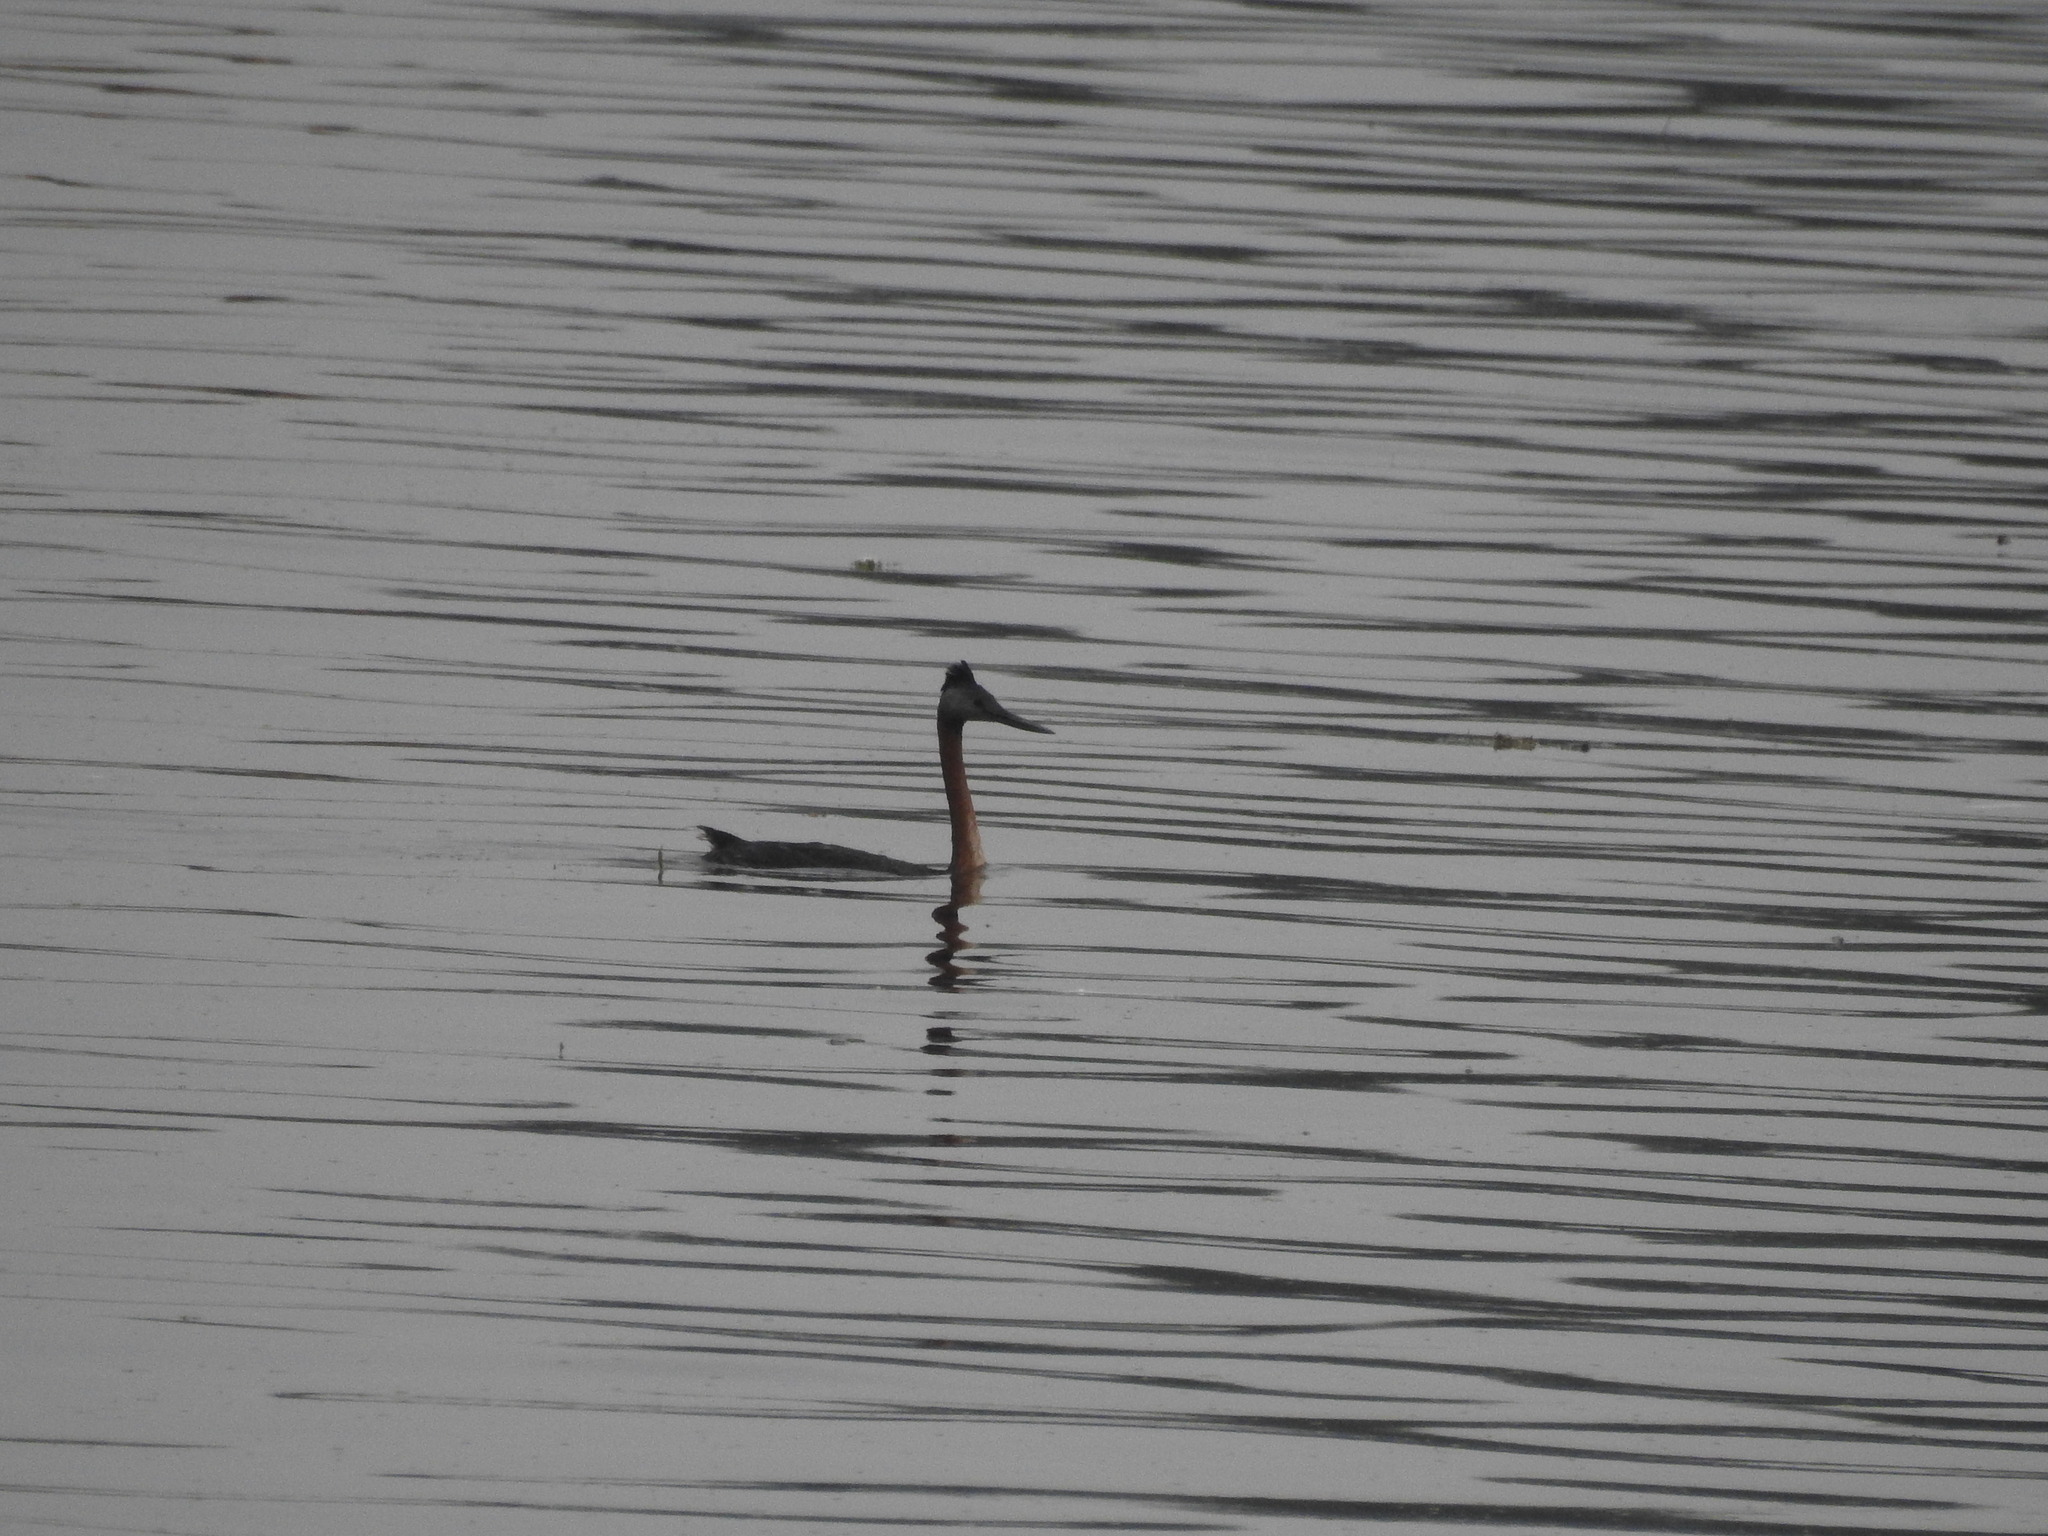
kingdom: Animalia
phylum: Chordata
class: Aves
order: Podicipediformes
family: Podicipedidae
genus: Podiceps
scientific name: Podiceps major
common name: Great grebe
